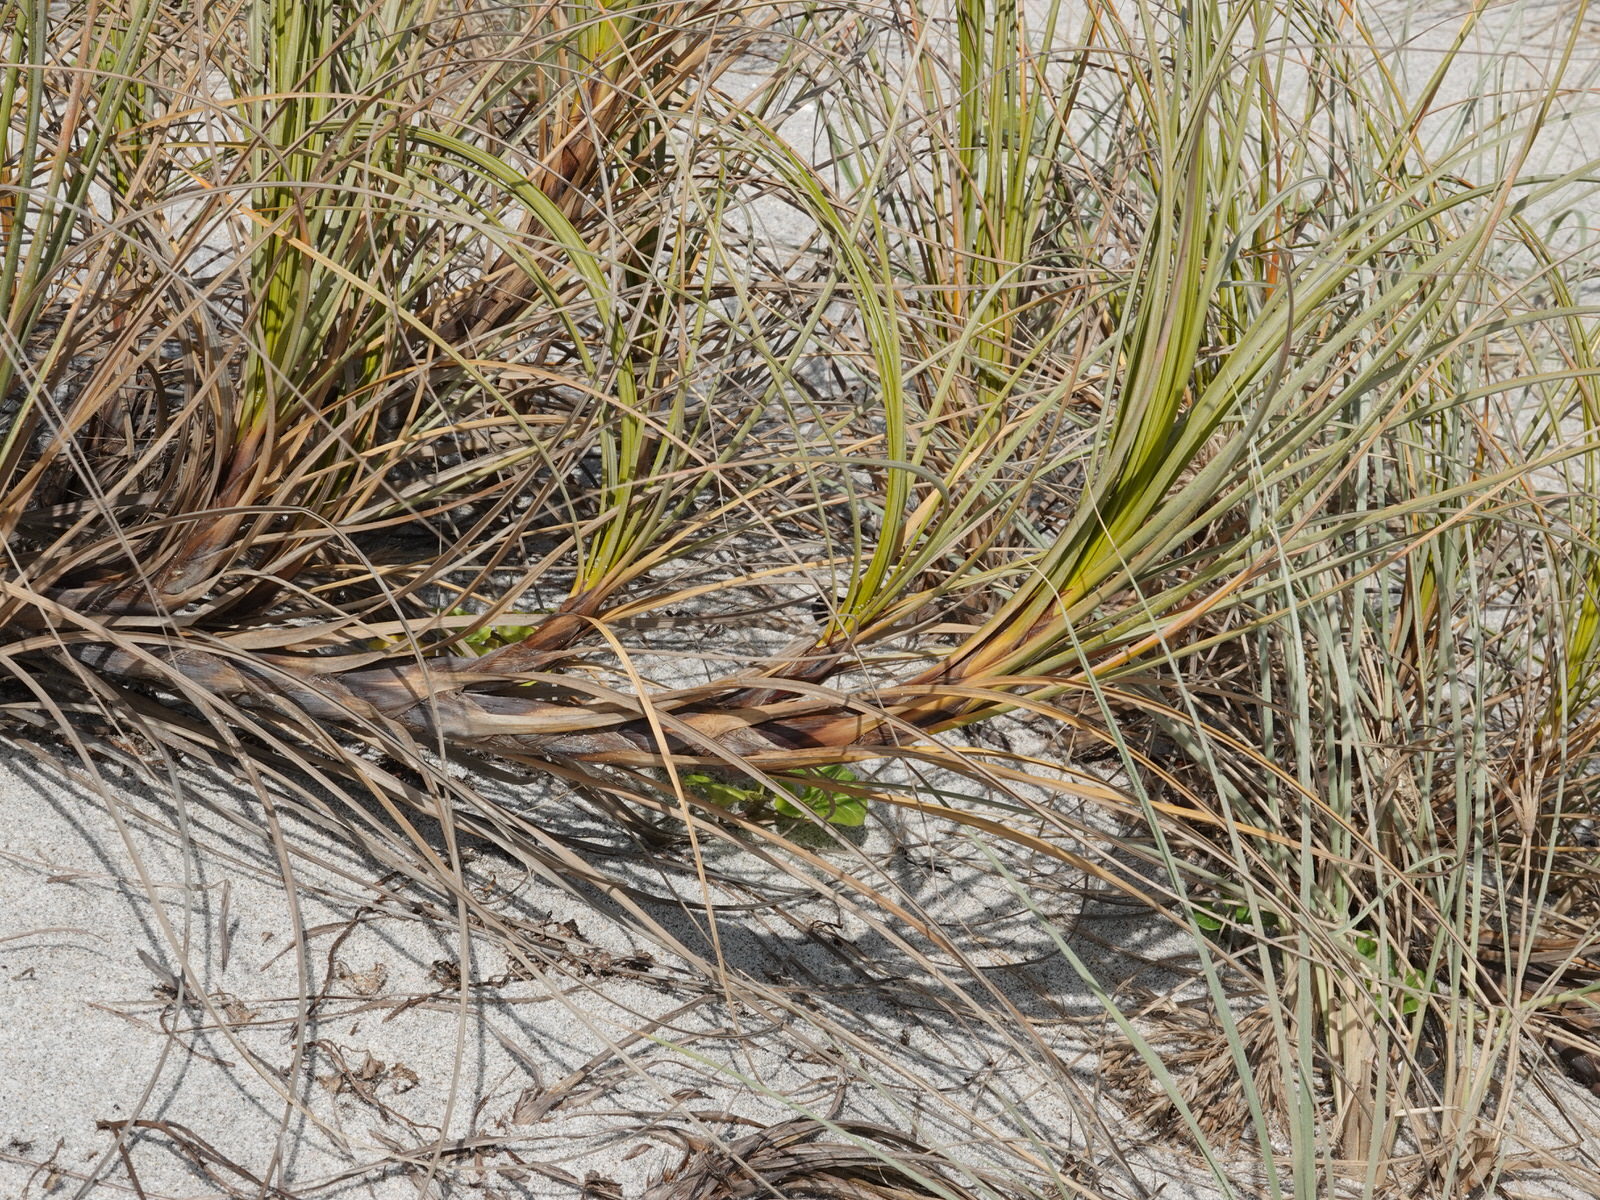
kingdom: Plantae
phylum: Tracheophyta
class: Liliopsida
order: Poales
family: Cyperaceae
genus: Ficinia
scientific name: Ficinia spiralis
